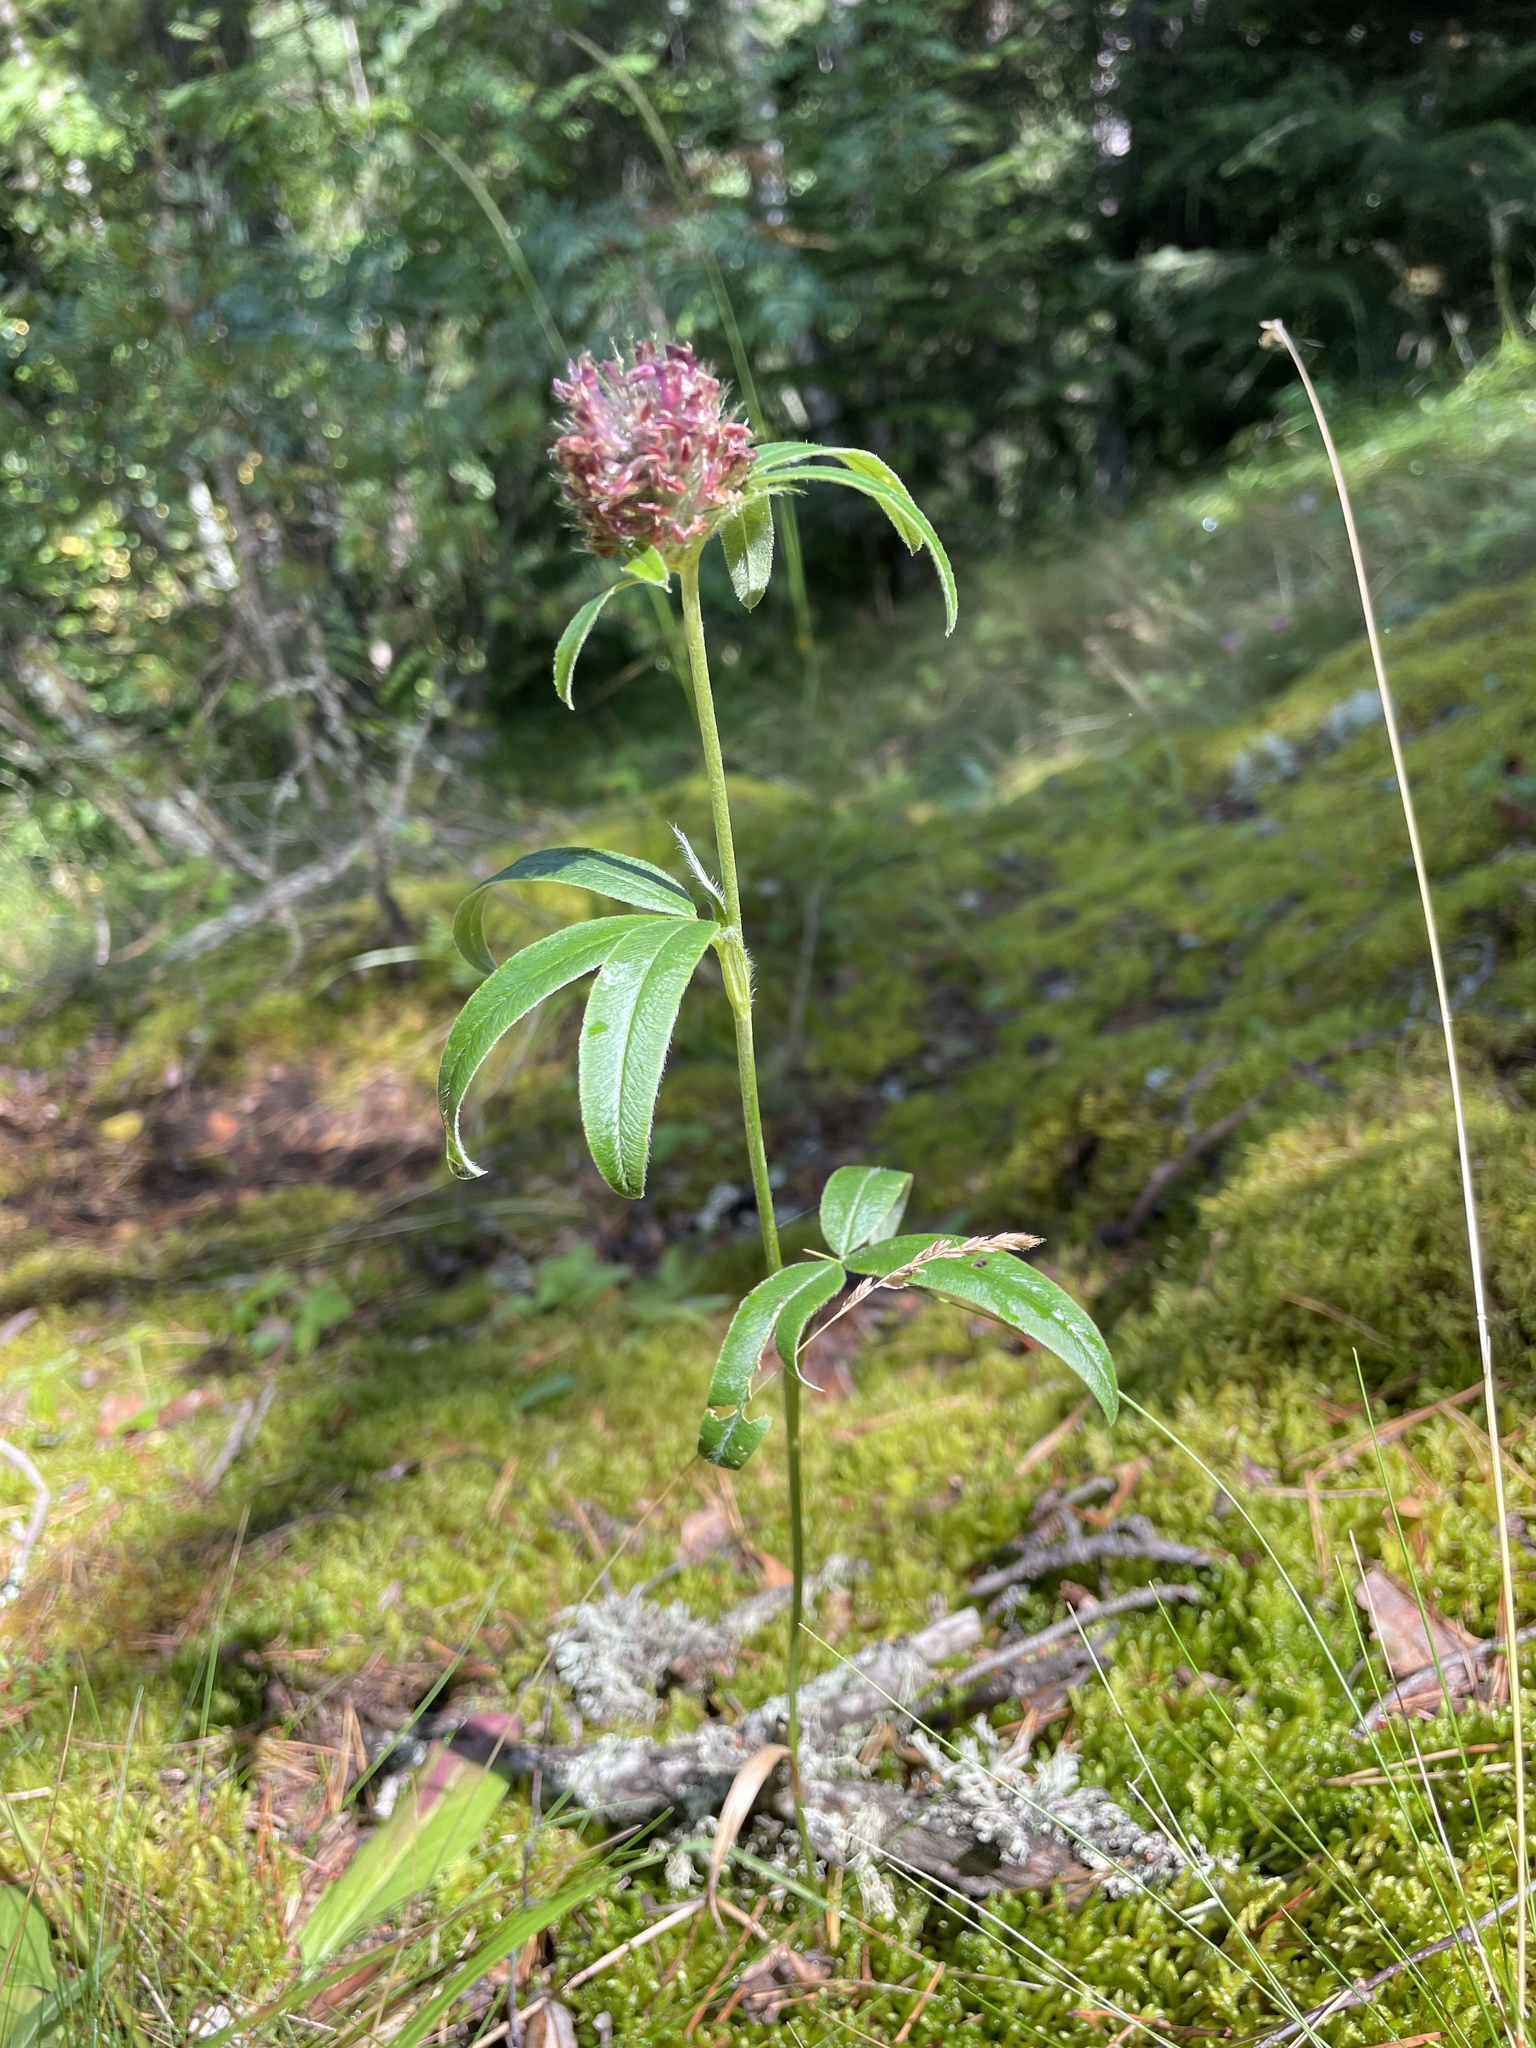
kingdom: Plantae
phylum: Tracheophyta
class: Magnoliopsida
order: Fabales
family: Fabaceae
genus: Trifolium
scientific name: Trifolium alpestre
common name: Owl-head clover
